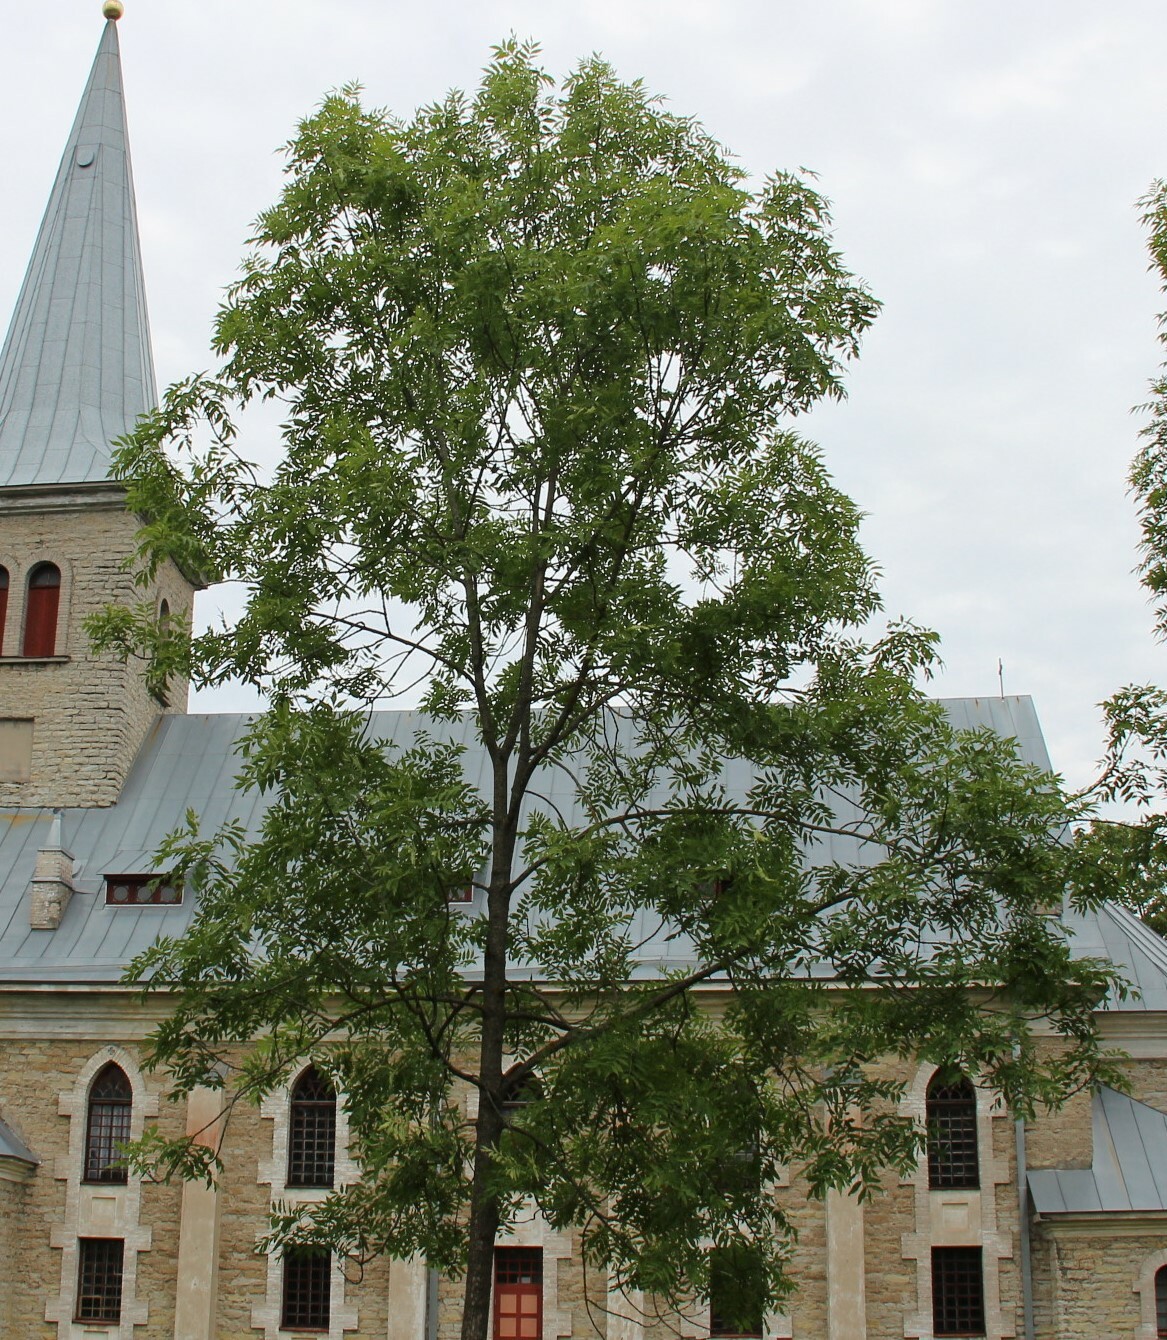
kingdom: Plantae
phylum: Tracheophyta
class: Magnoliopsida
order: Lamiales
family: Oleaceae
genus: Fraxinus
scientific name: Fraxinus excelsior
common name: European ash
